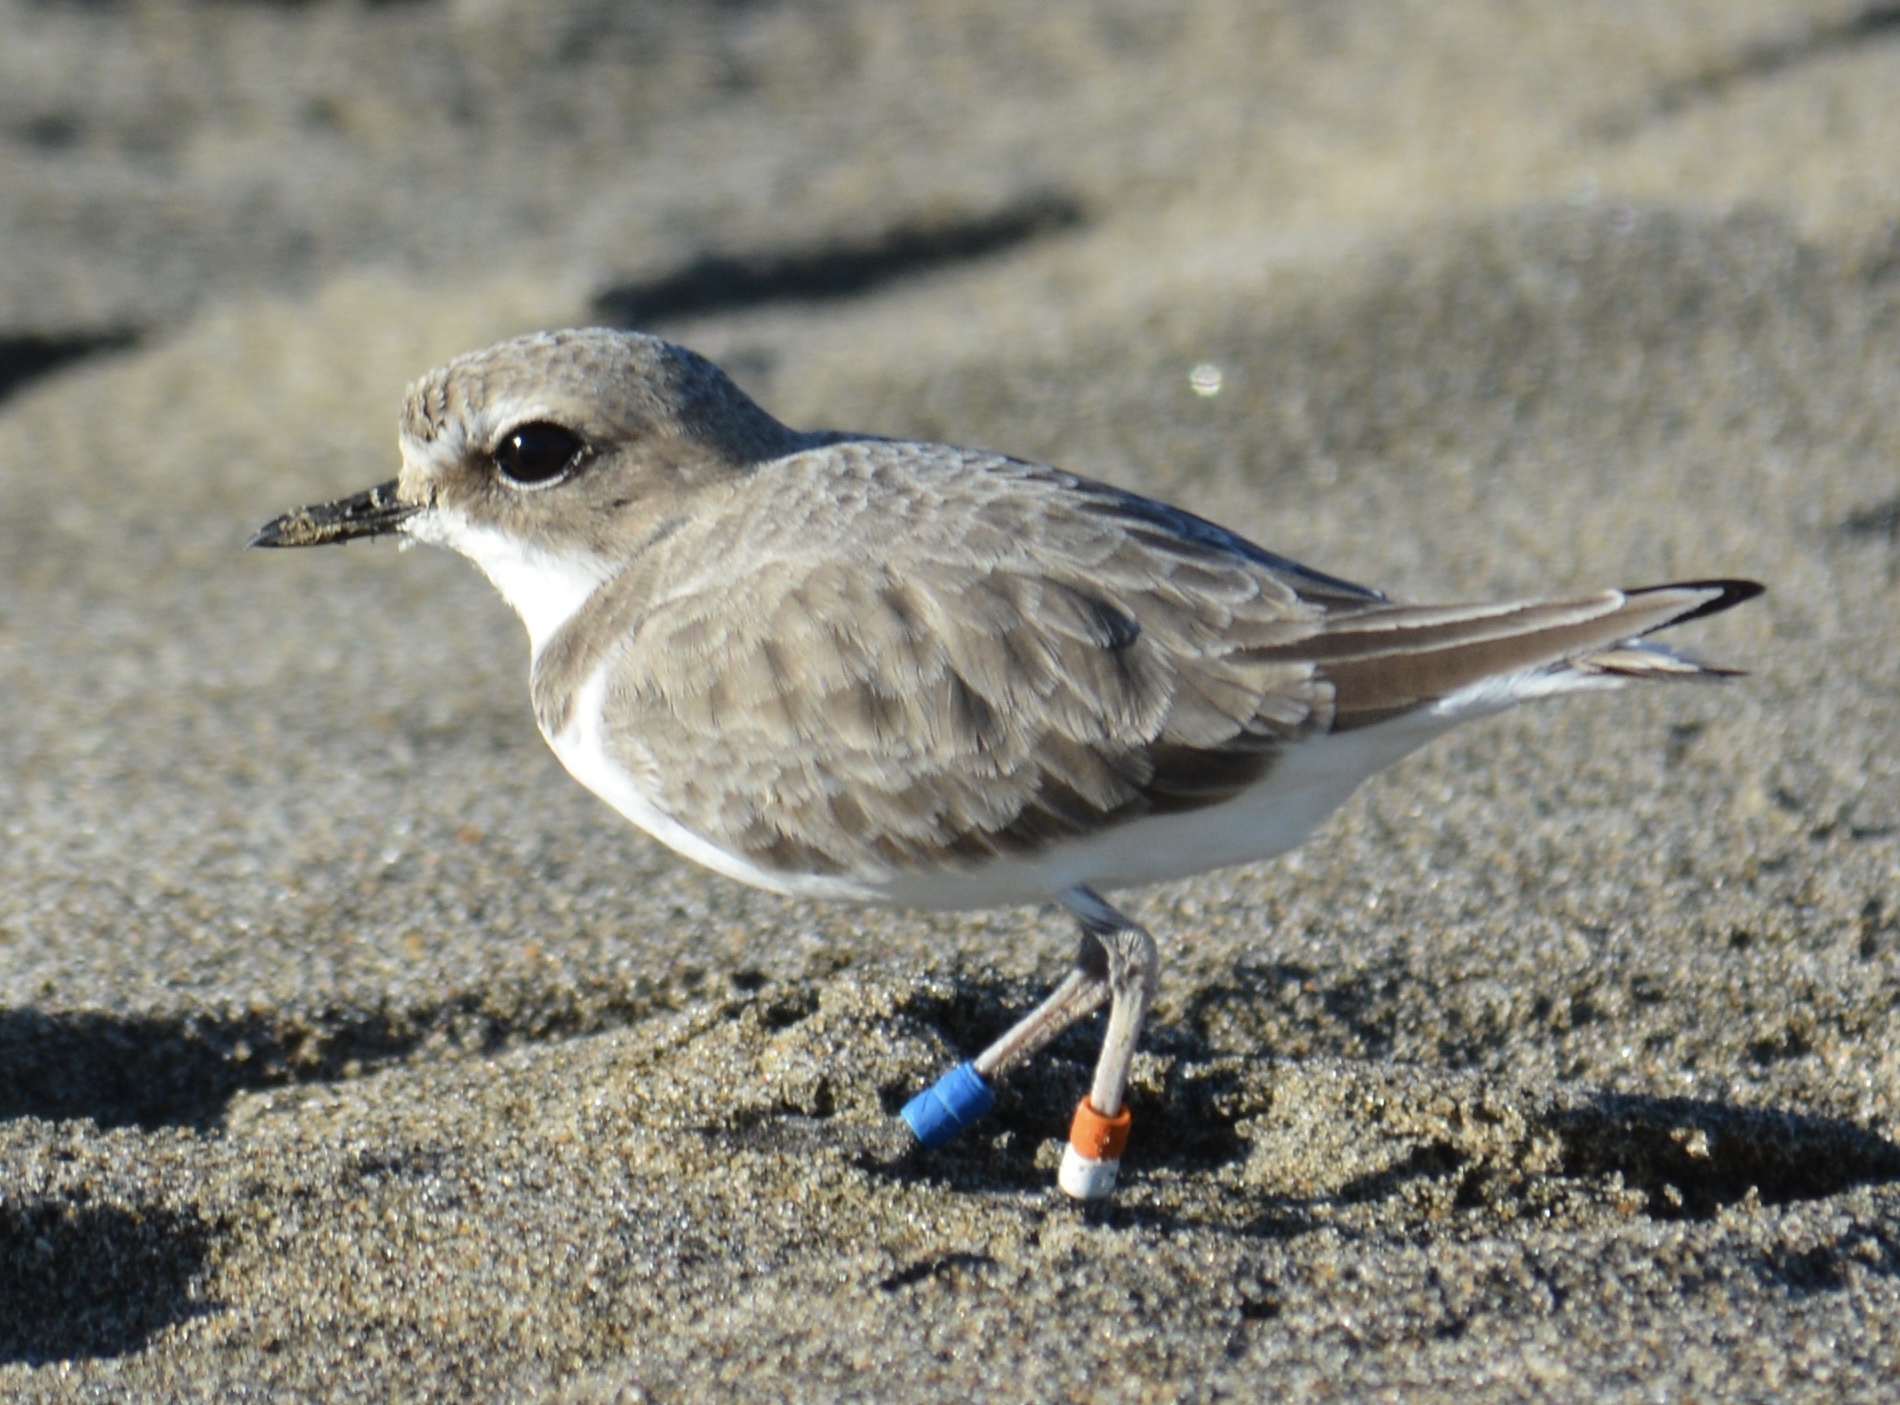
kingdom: Animalia
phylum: Chordata
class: Aves
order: Charadriiformes
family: Charadriidae
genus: Anarhynchus
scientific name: Anarhynchus
